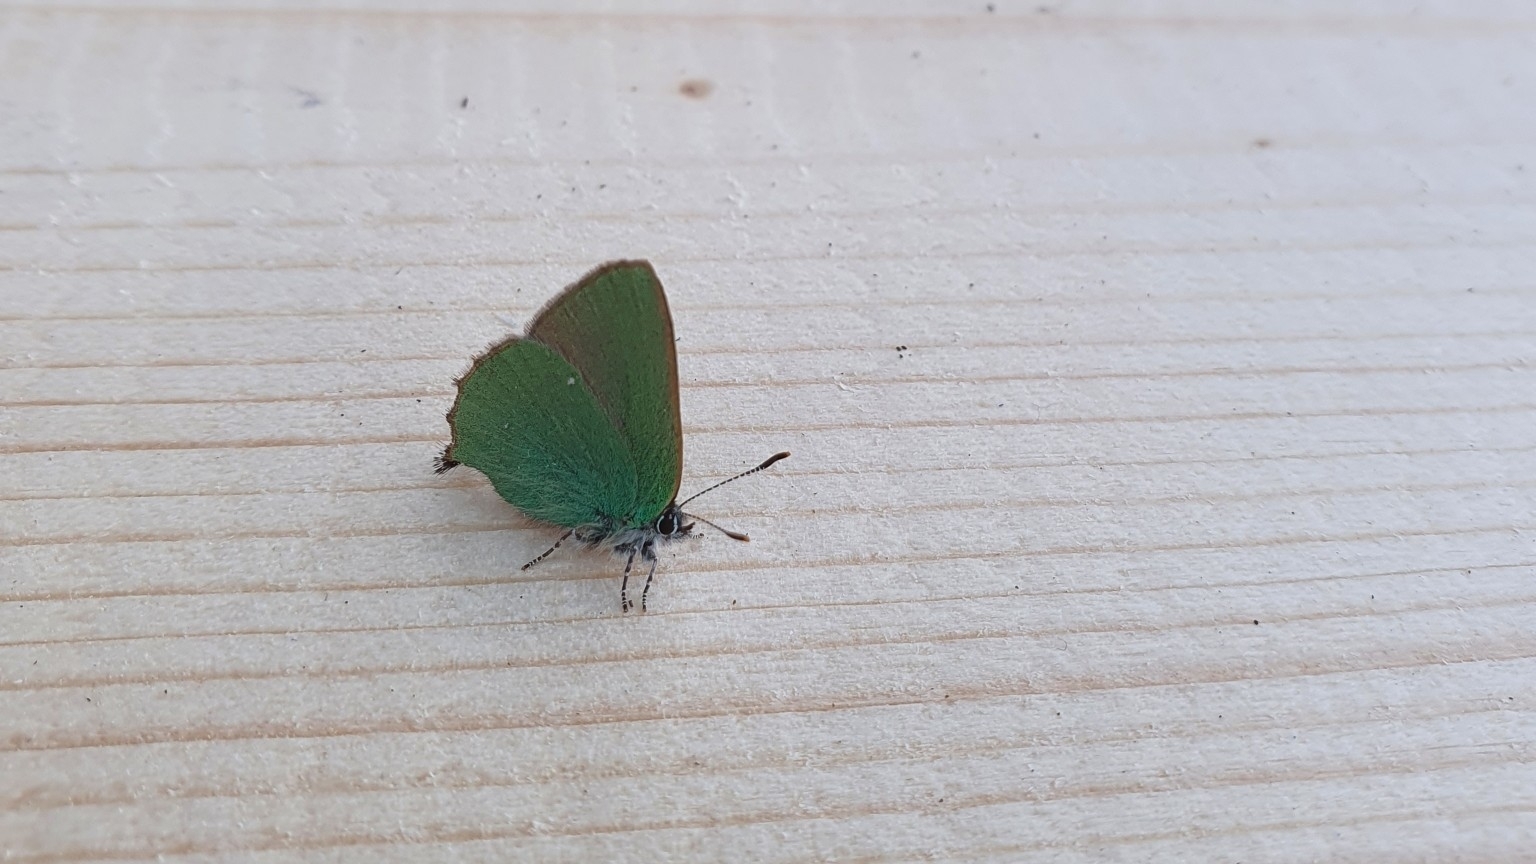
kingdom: Animalia
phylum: Arthropoda
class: Insecta
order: Lepidoptera
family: Lycaenidae
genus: Callophrys
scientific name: Callophrys rubi
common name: Green hairstreak
